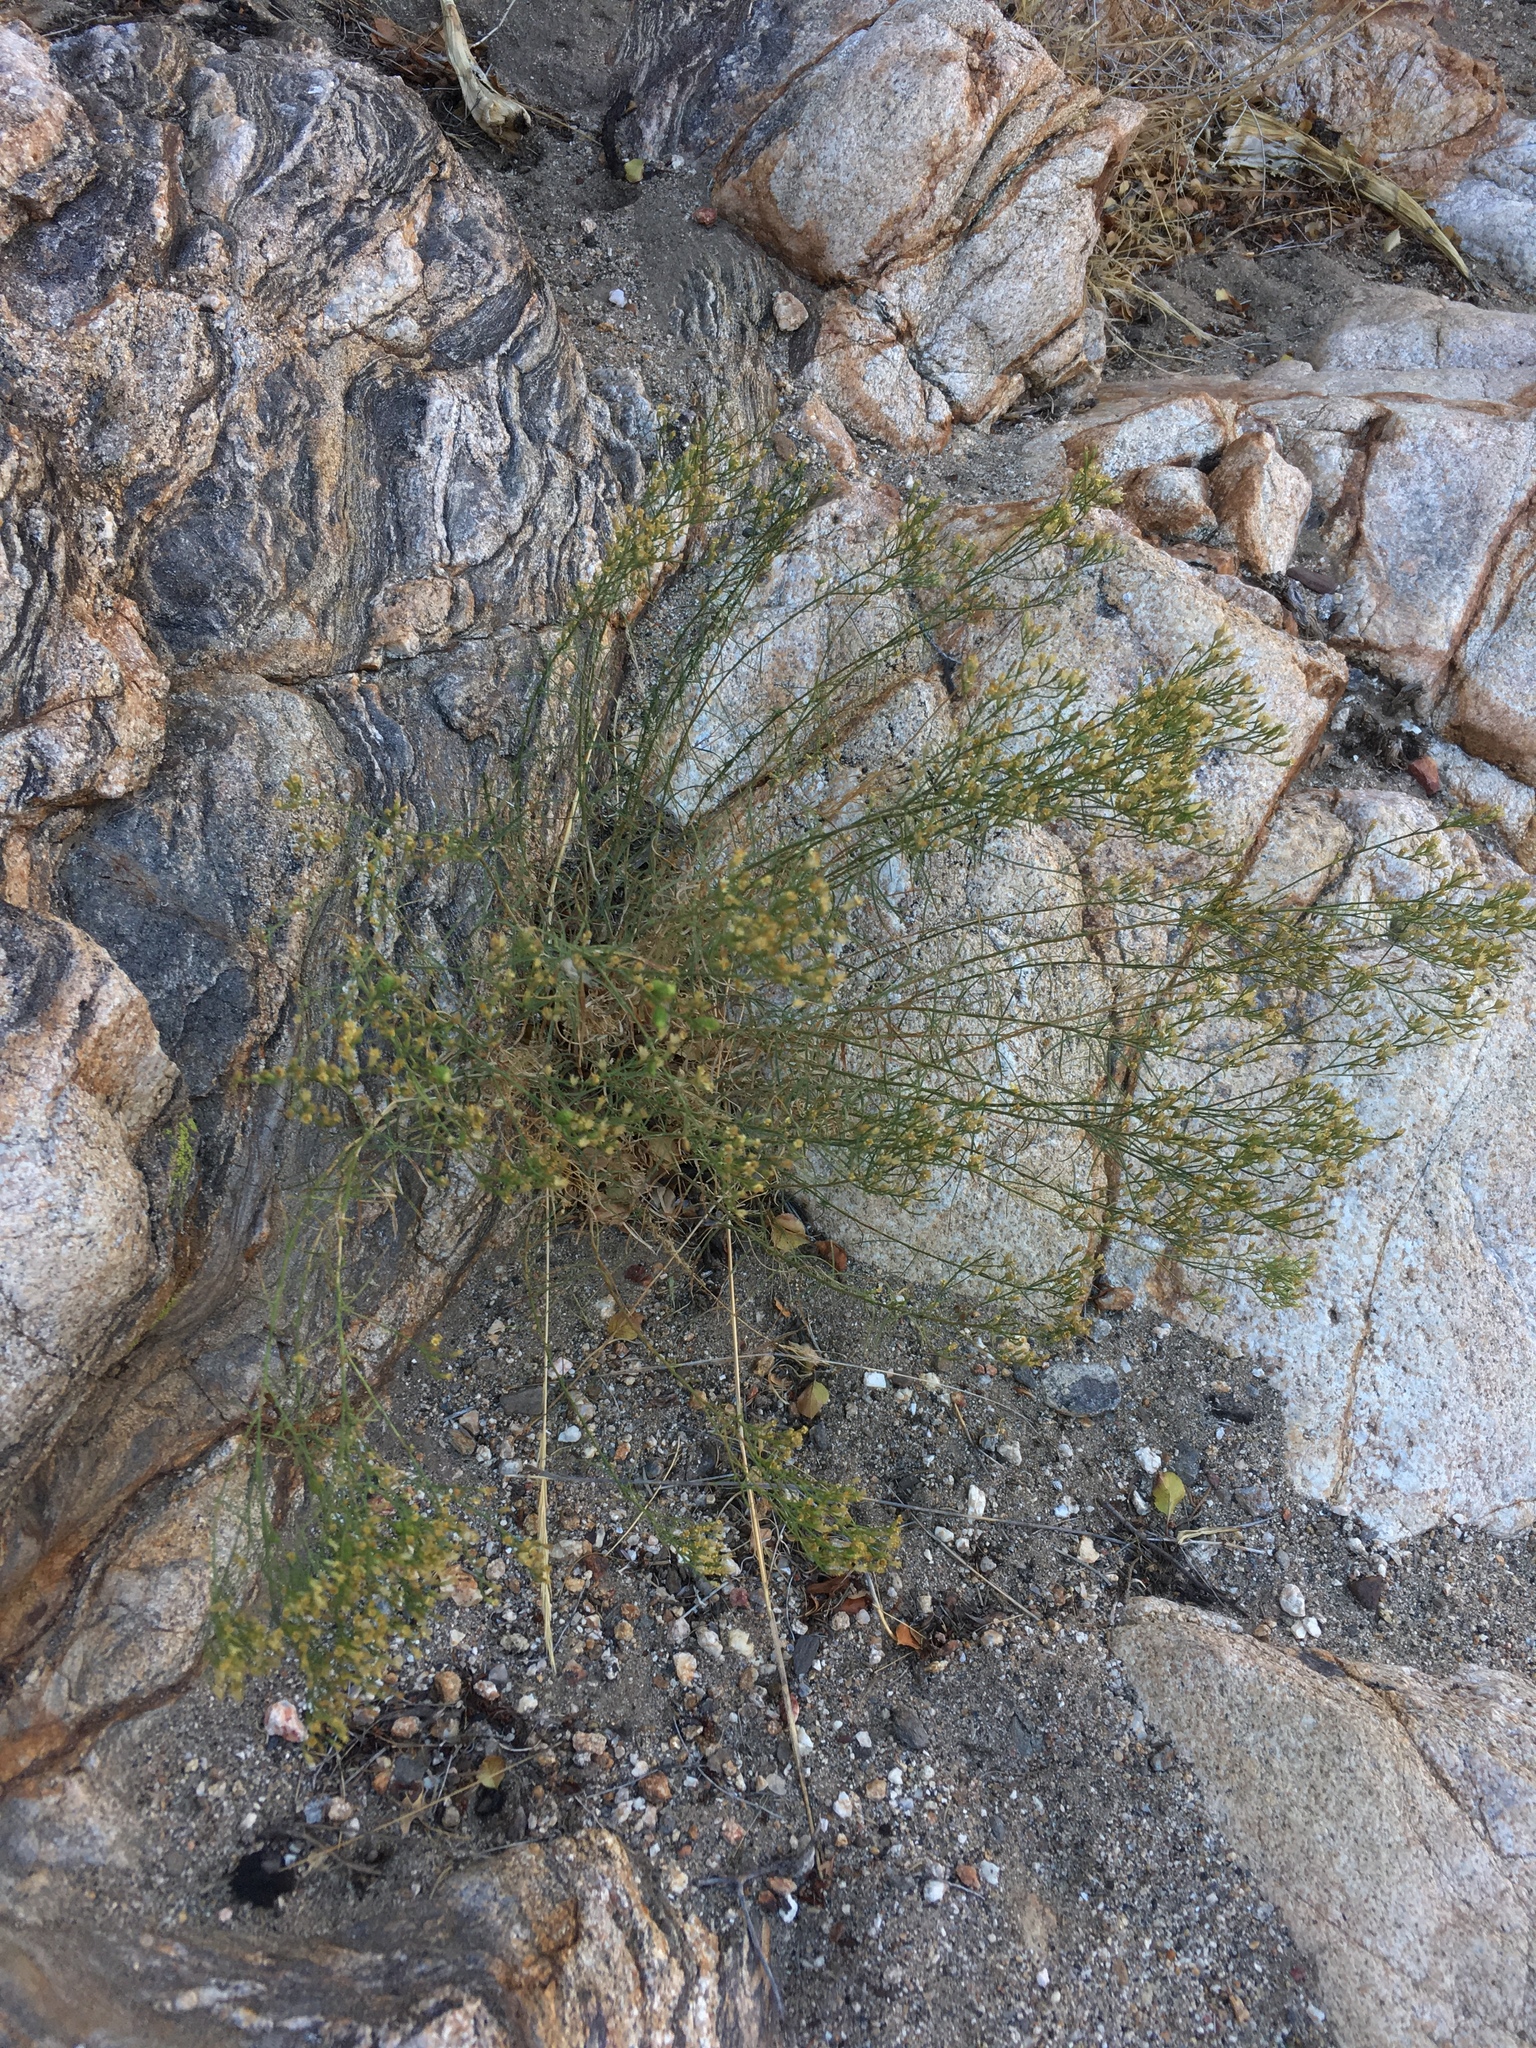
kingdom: Plantae
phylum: Tracheophyta
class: Magnoliopsida
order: Asterales
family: Asteraceae
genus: Gutierrezia
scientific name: Gutierrezia sarothrae
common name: Broom snakeweed
